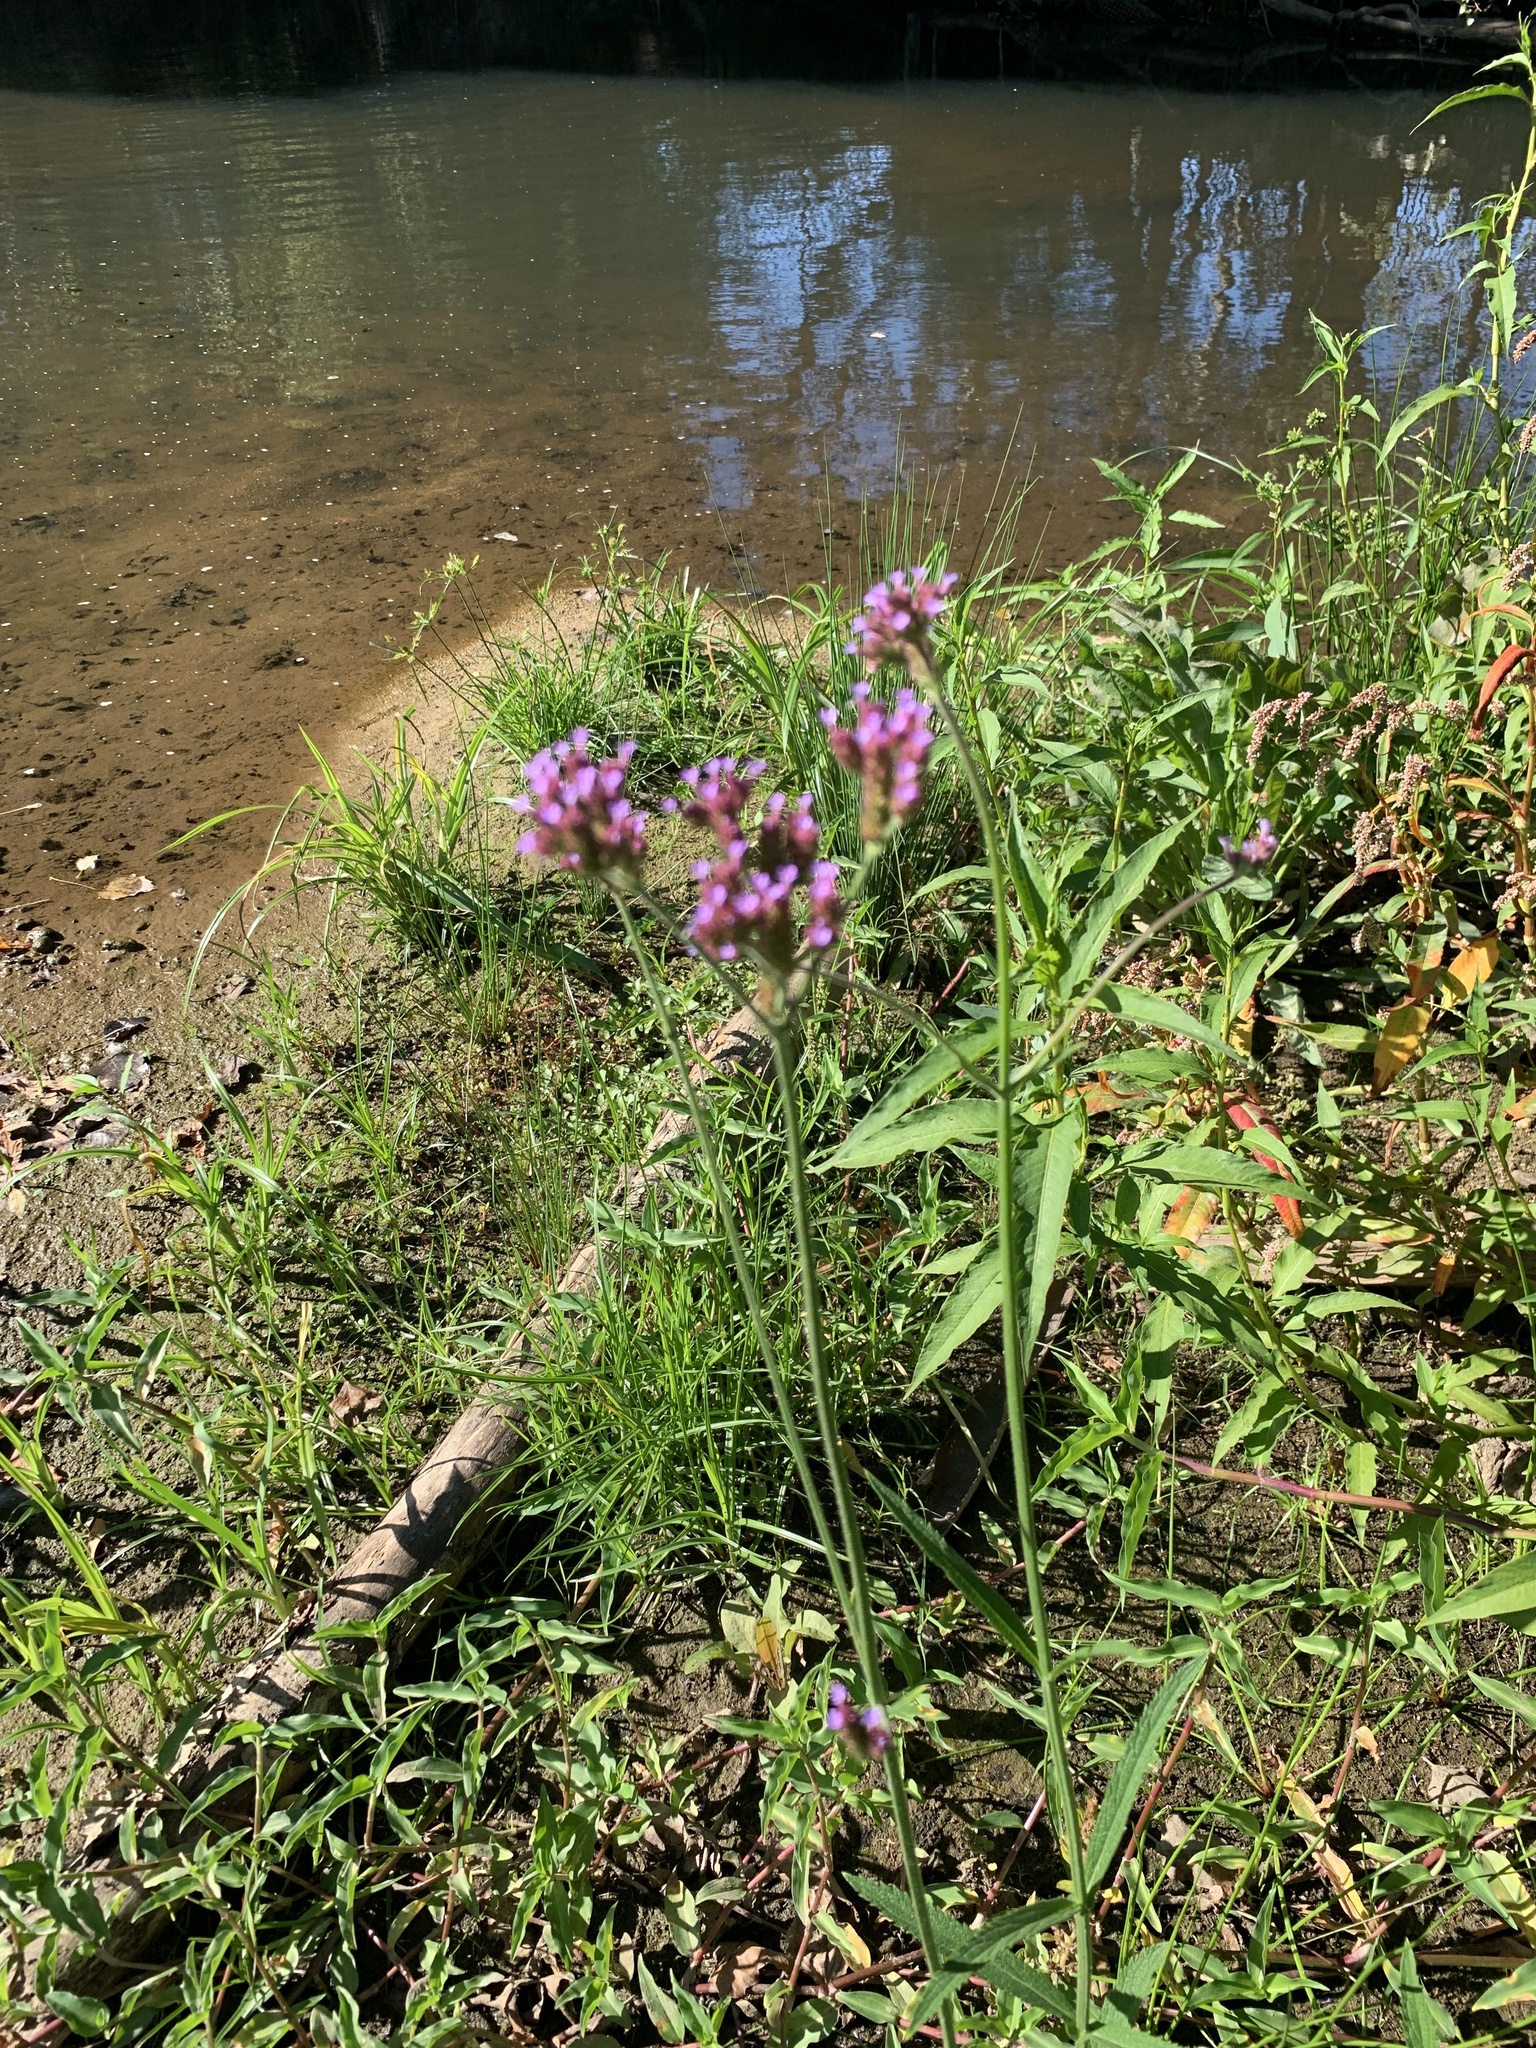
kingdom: Plantae
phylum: Tracheophyta
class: Magnoliopsida
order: Lamiales
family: Verbenaceae
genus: Verbena
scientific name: Verbena bonariensis
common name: Purpletop vervain
